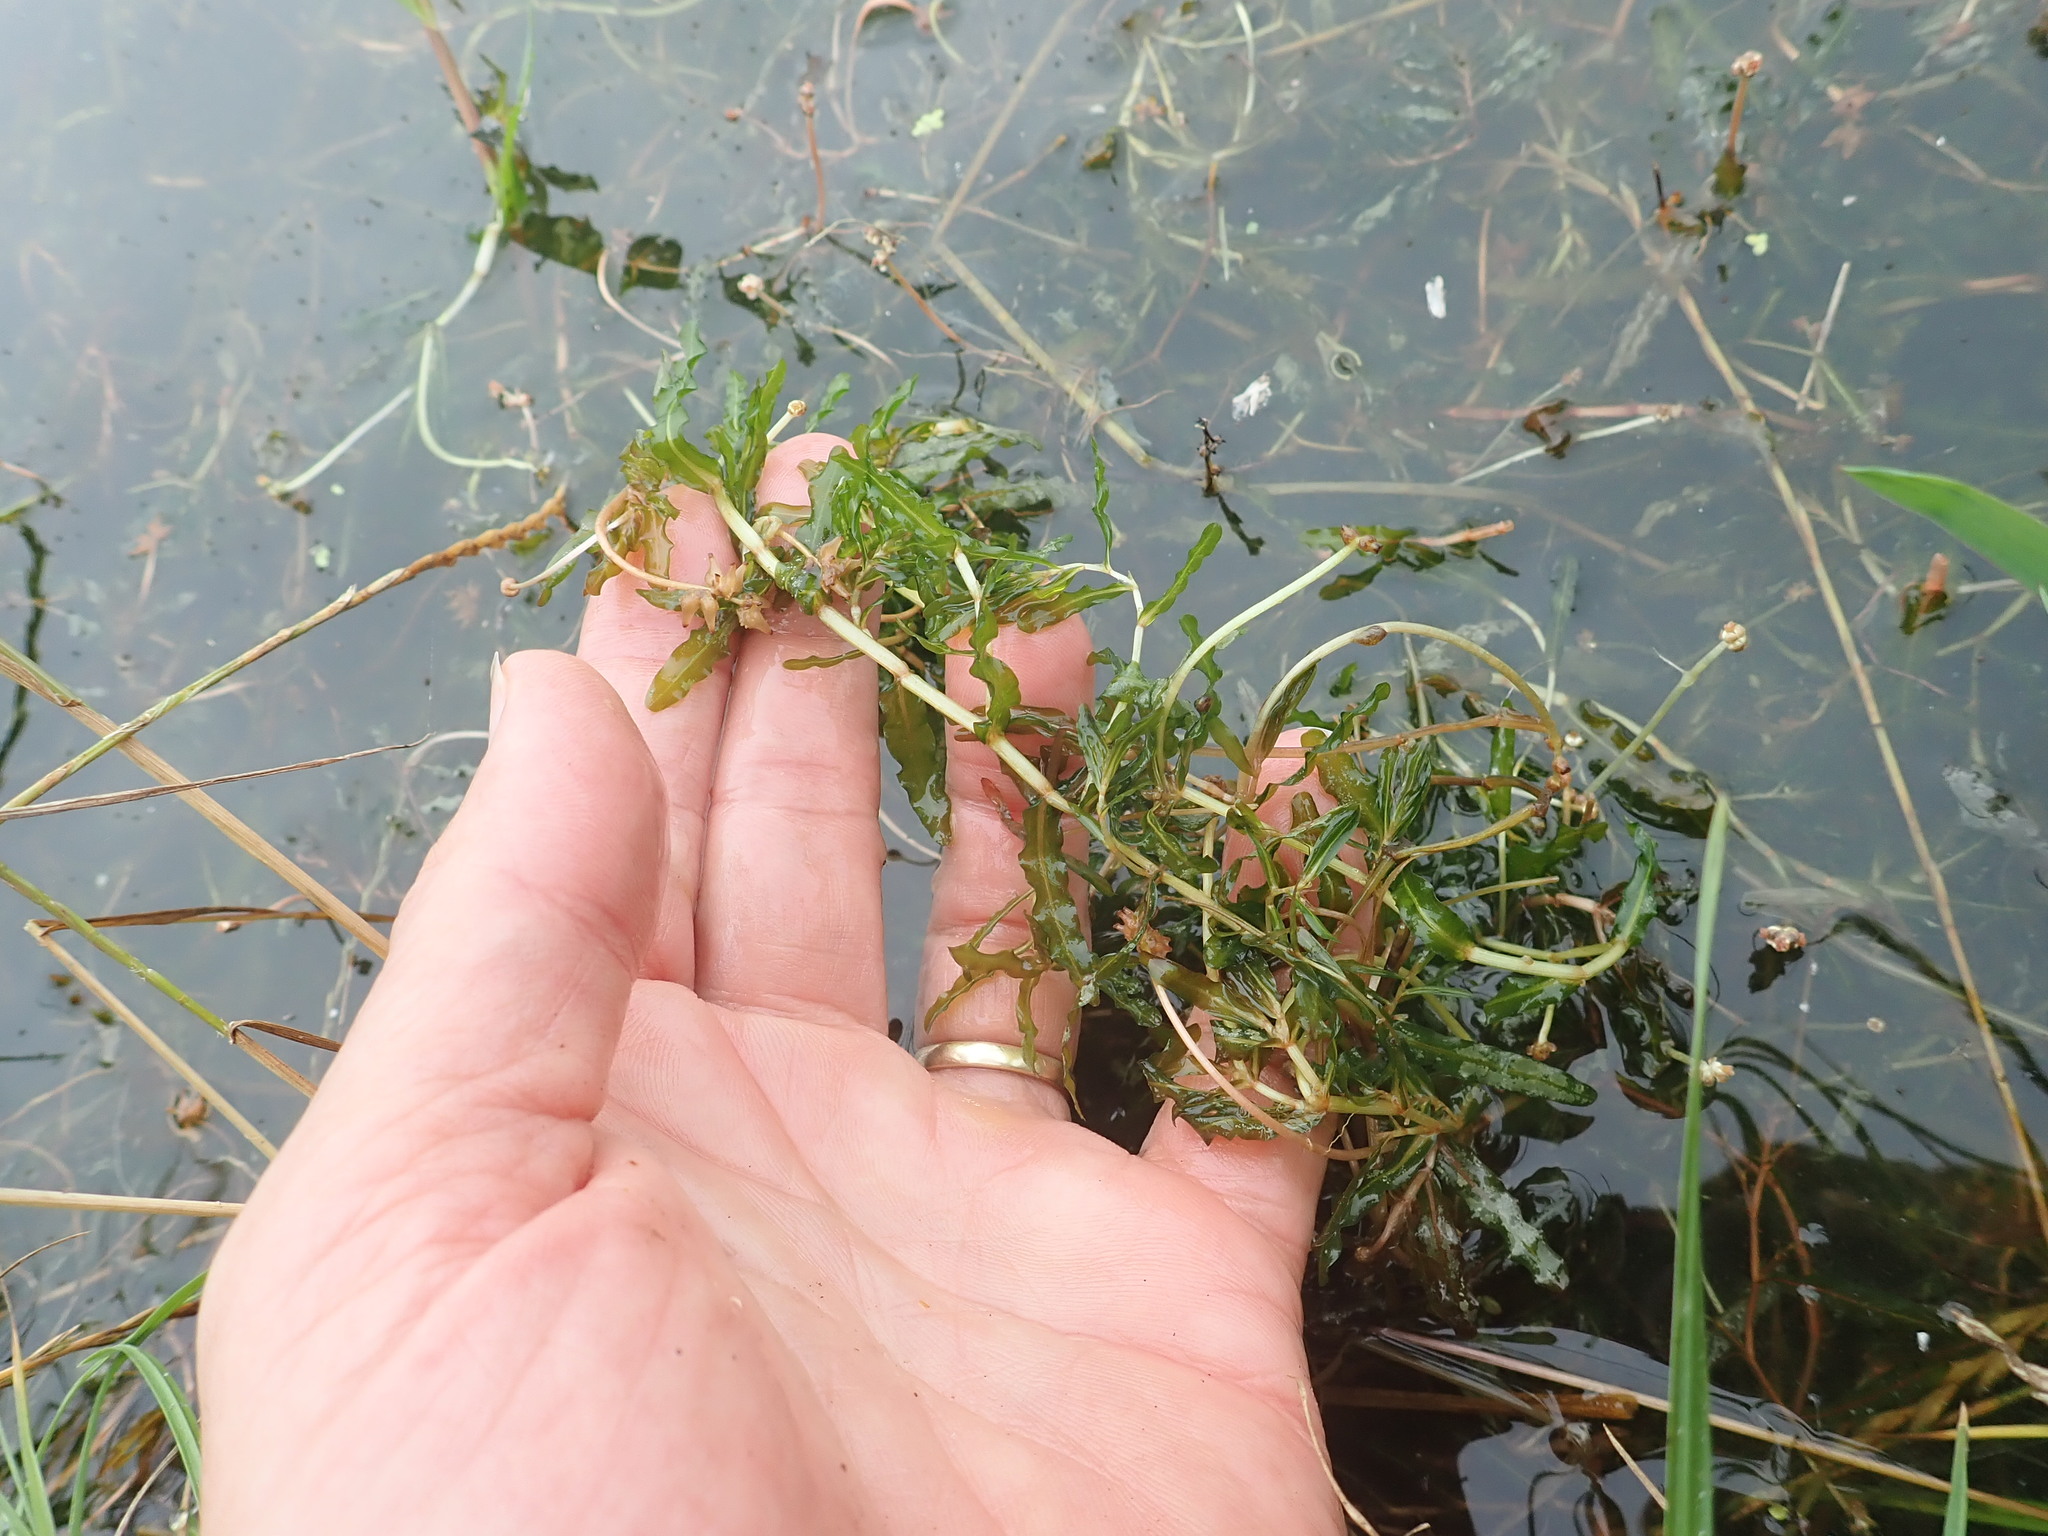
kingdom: Plantae
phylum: Tracheophyta
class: Liliopsida
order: Alismatales
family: Potamogetonaceae
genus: Potamogeton
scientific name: Potamogeton crispus
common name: Curled pondweed
